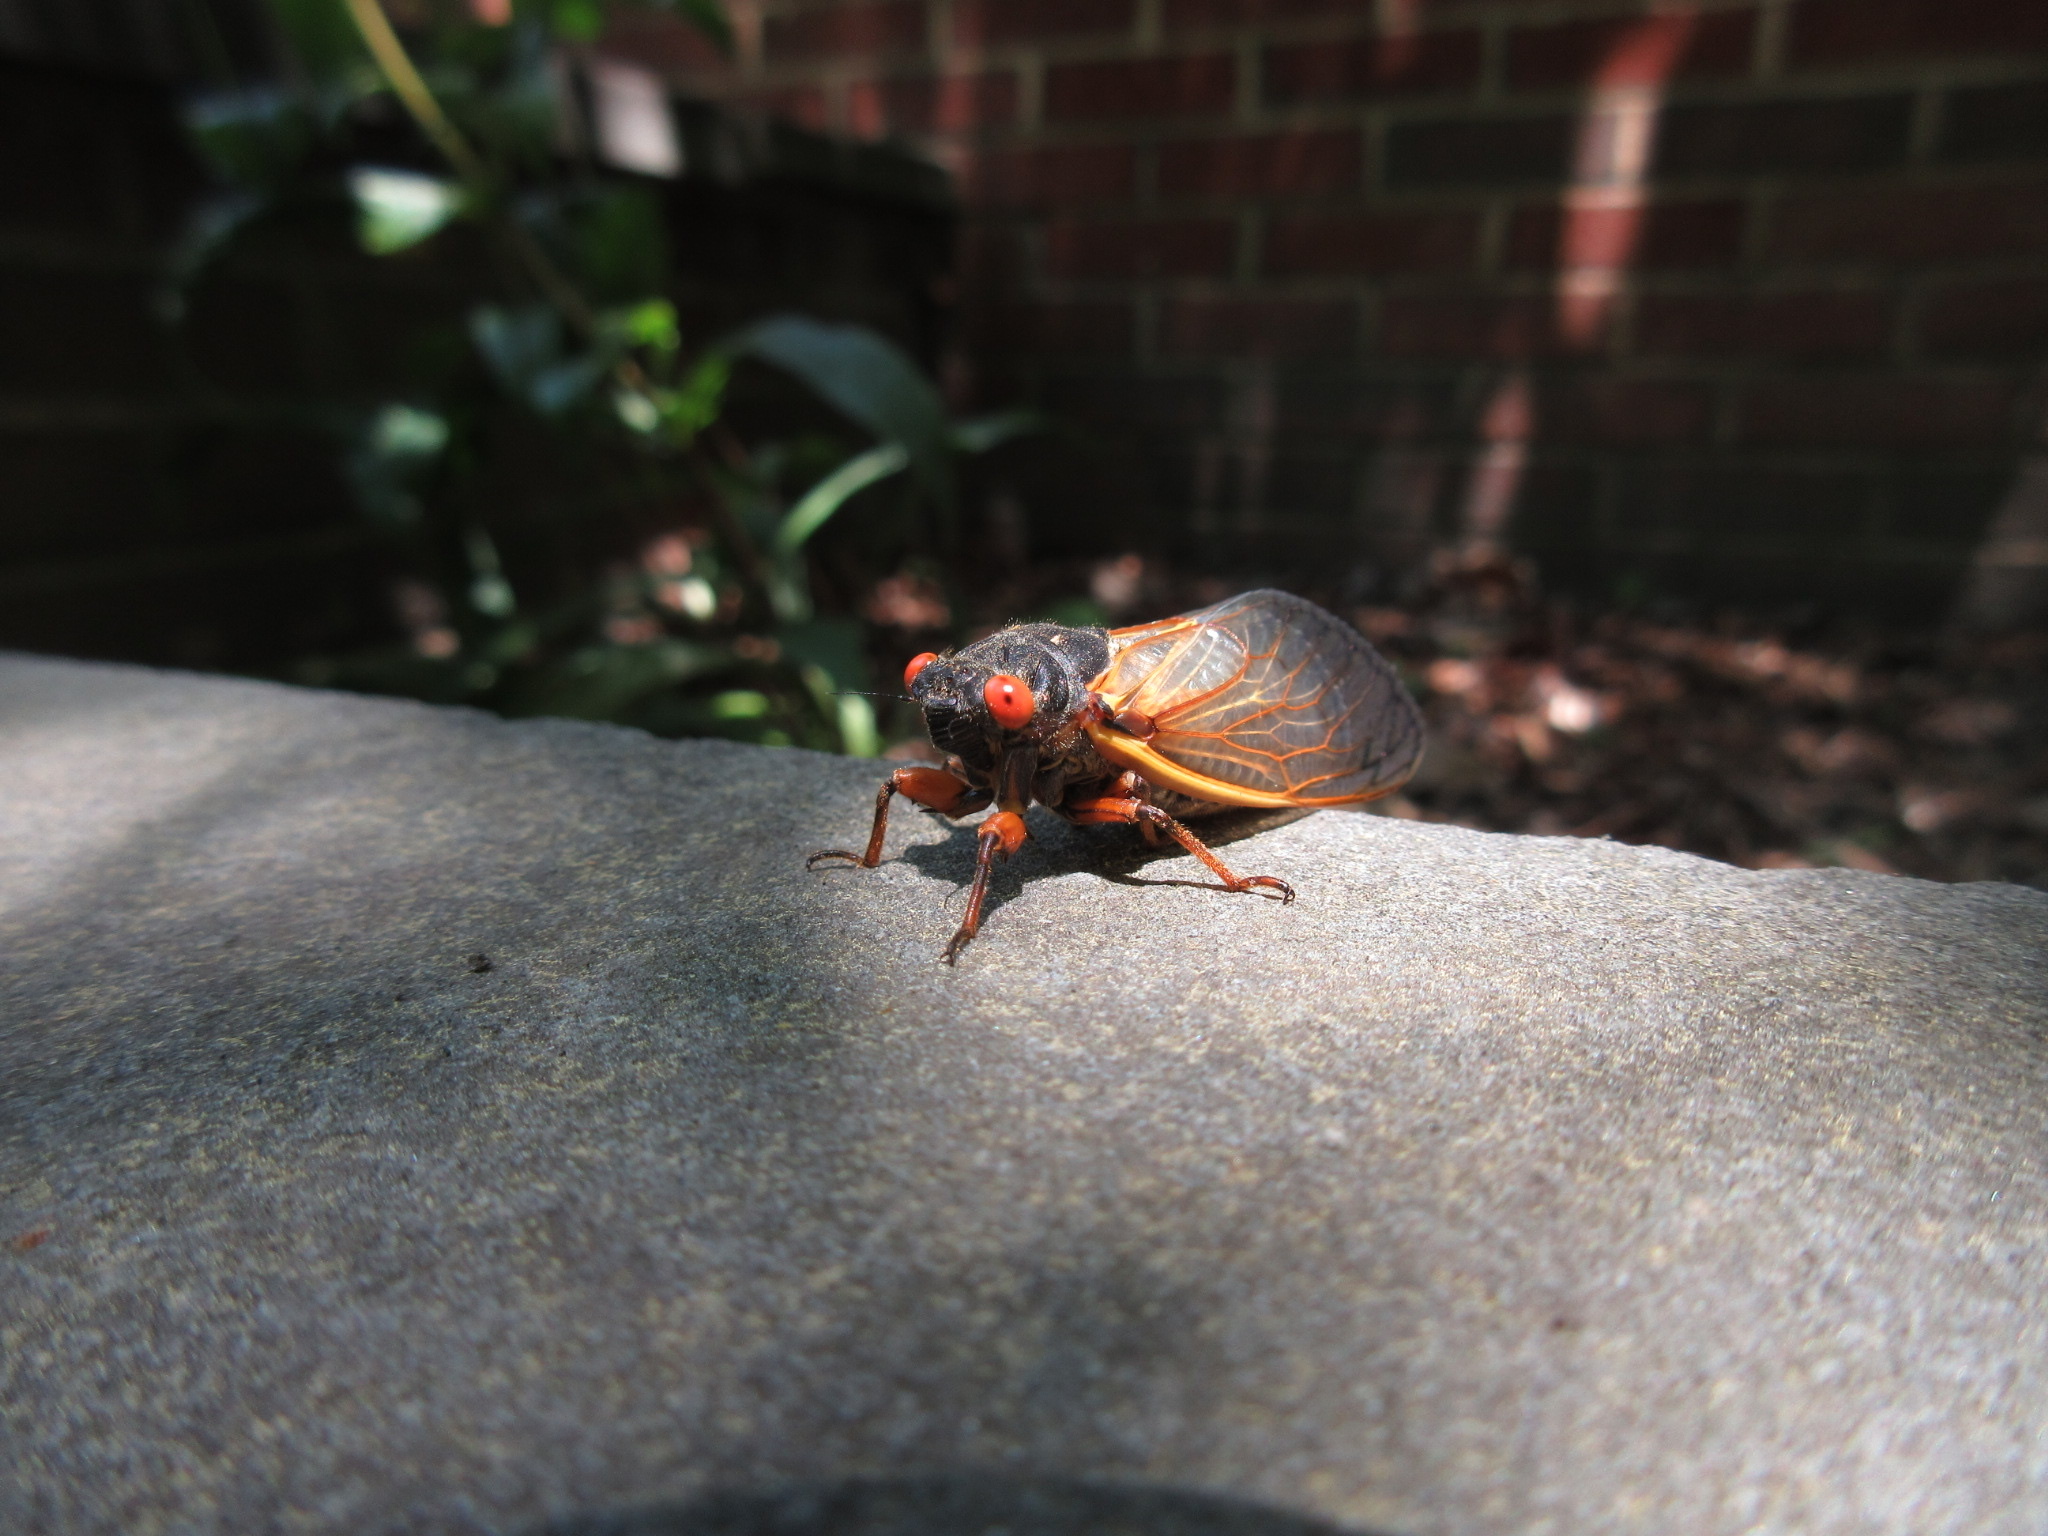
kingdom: Animalia
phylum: Arthropoda
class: Insecta
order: Hemiptera
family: Cicadidae
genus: Magicicada
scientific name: Magicicada septendecim
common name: Periodical cicada
